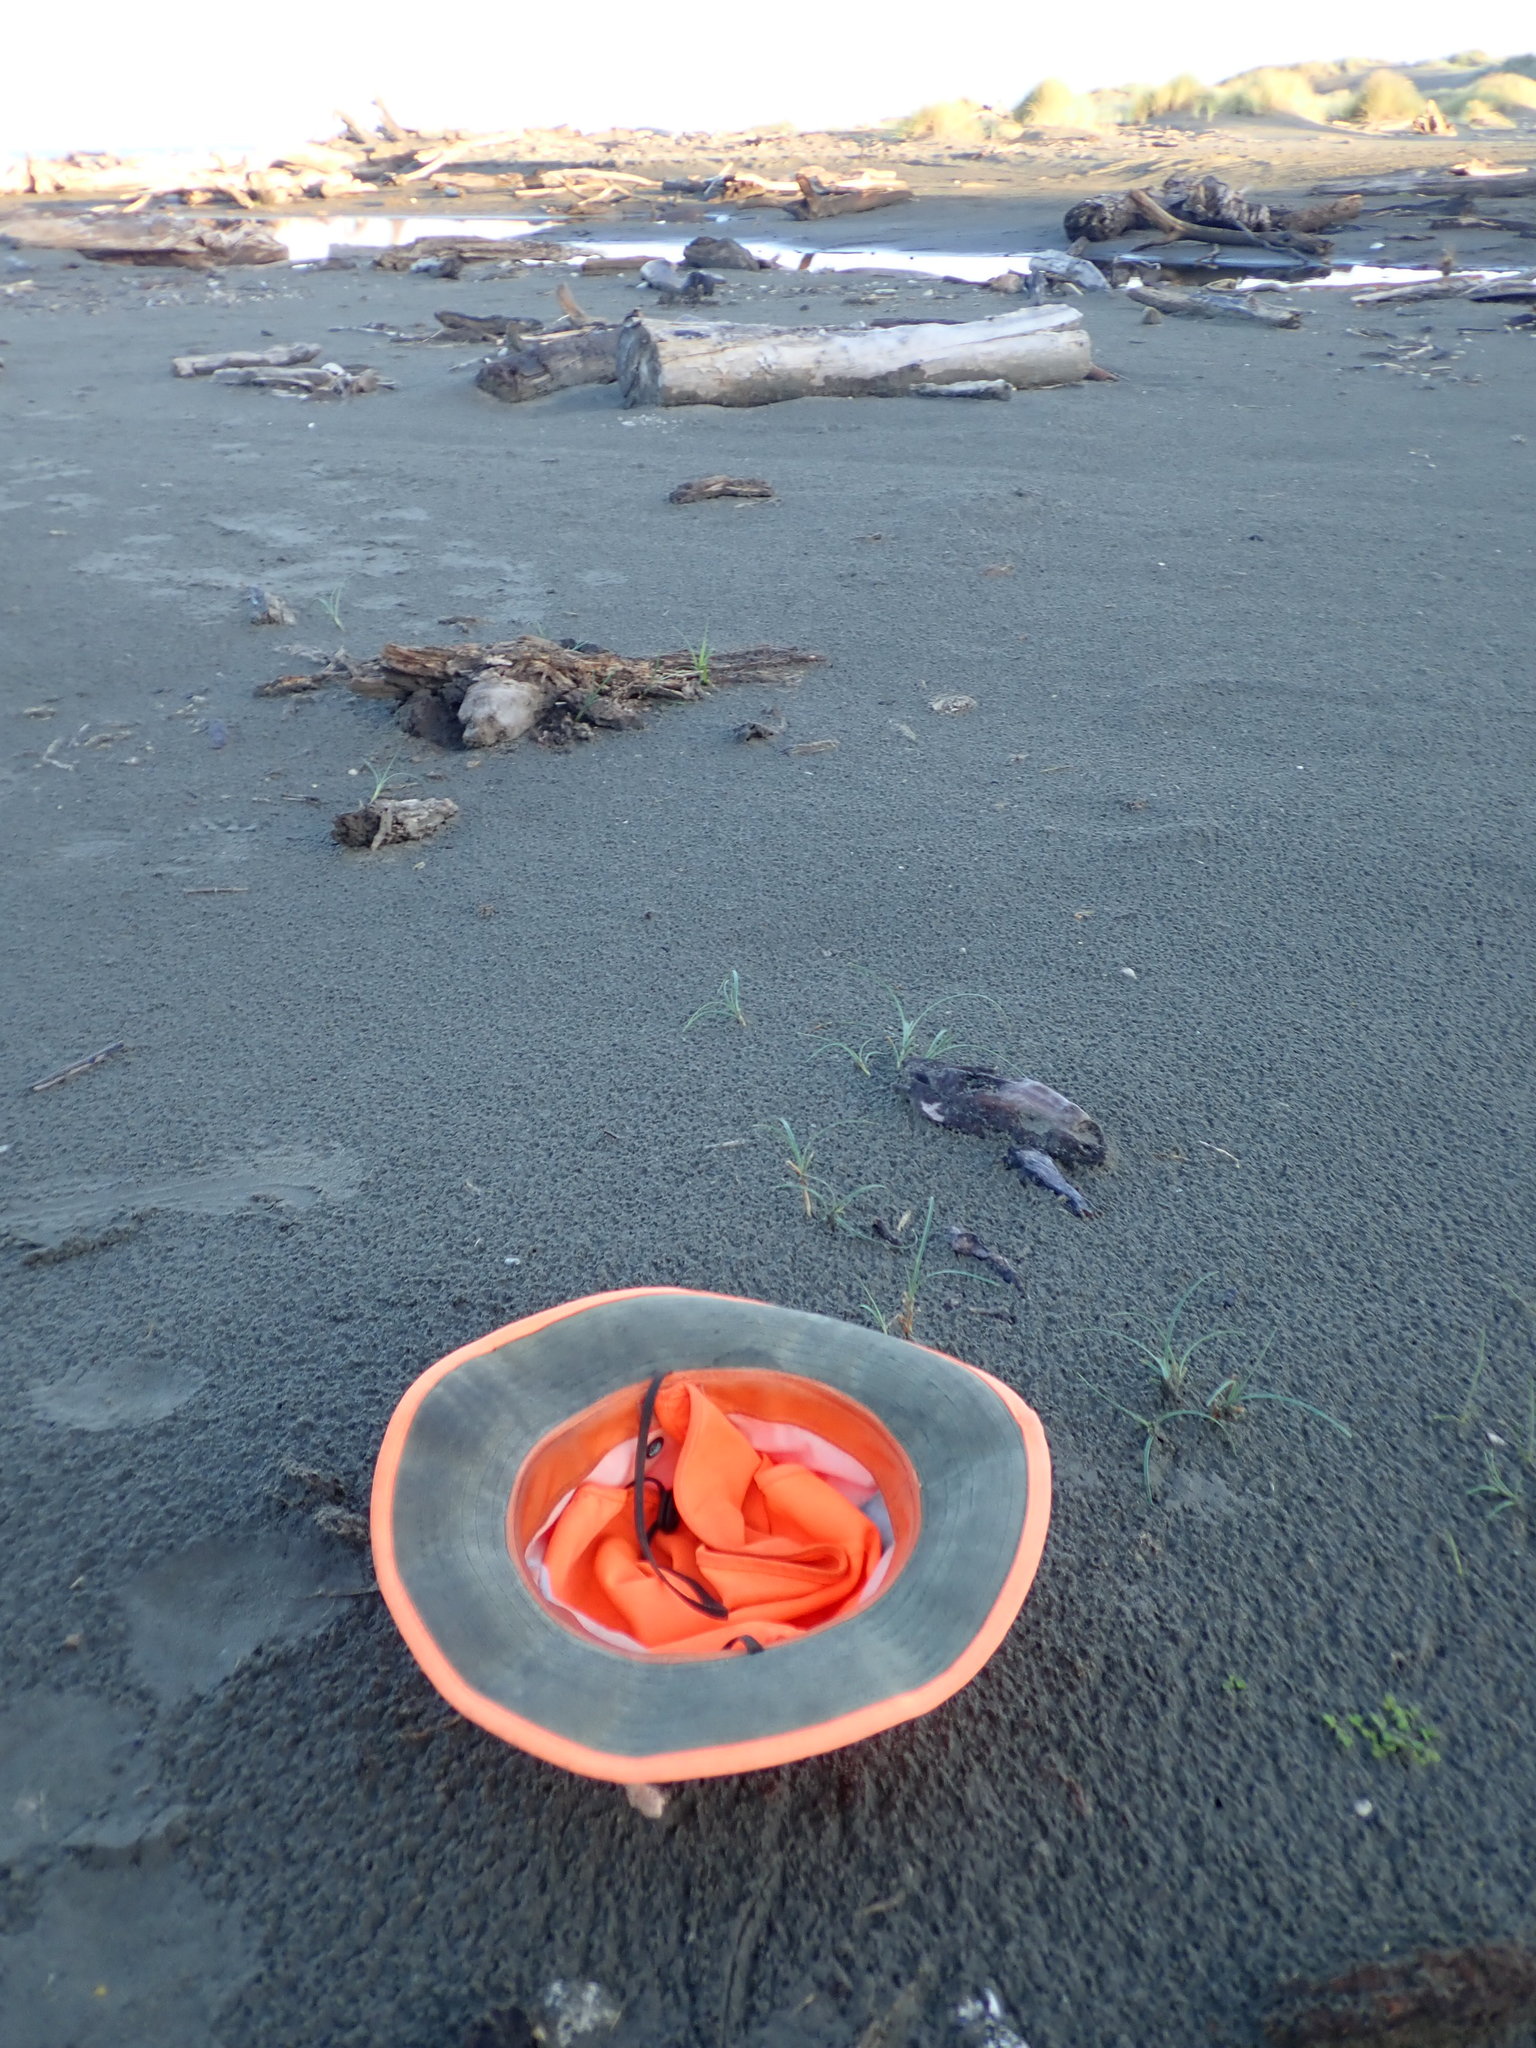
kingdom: Plantae
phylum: Tracheophyta
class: Liliopsida
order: Poales
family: Cyperaceae
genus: Carex
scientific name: Carex pumila
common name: Dwarf sedge
